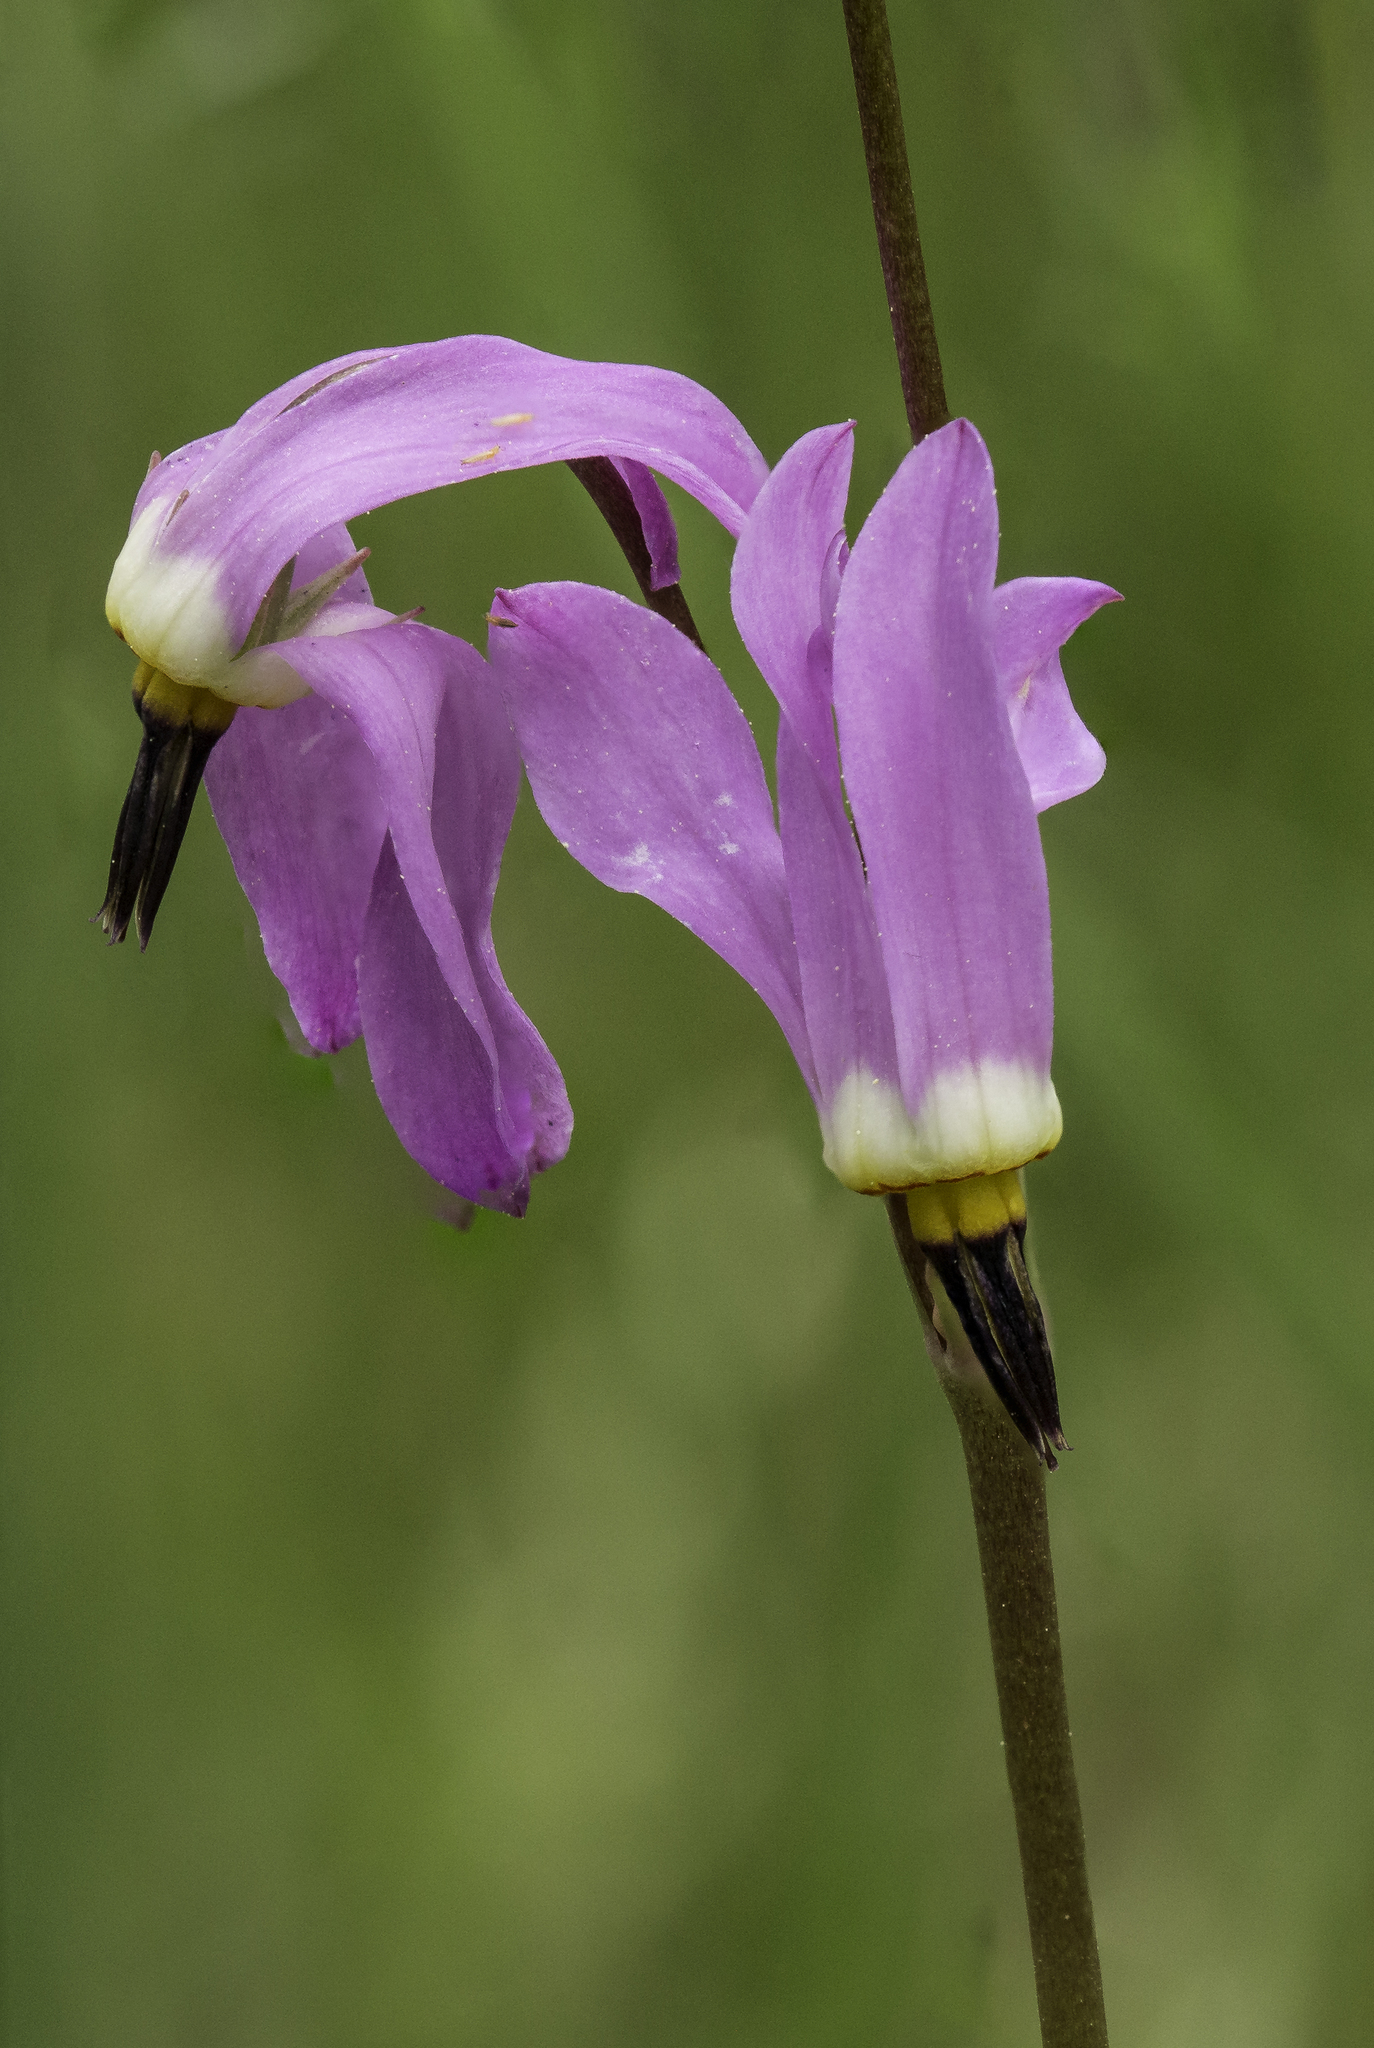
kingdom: Plantae
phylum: Tracheophyta
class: Magnoliopsida
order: Ericales
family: Primulaceae
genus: Dodecatheon
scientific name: Dodecatheon pulchellum
